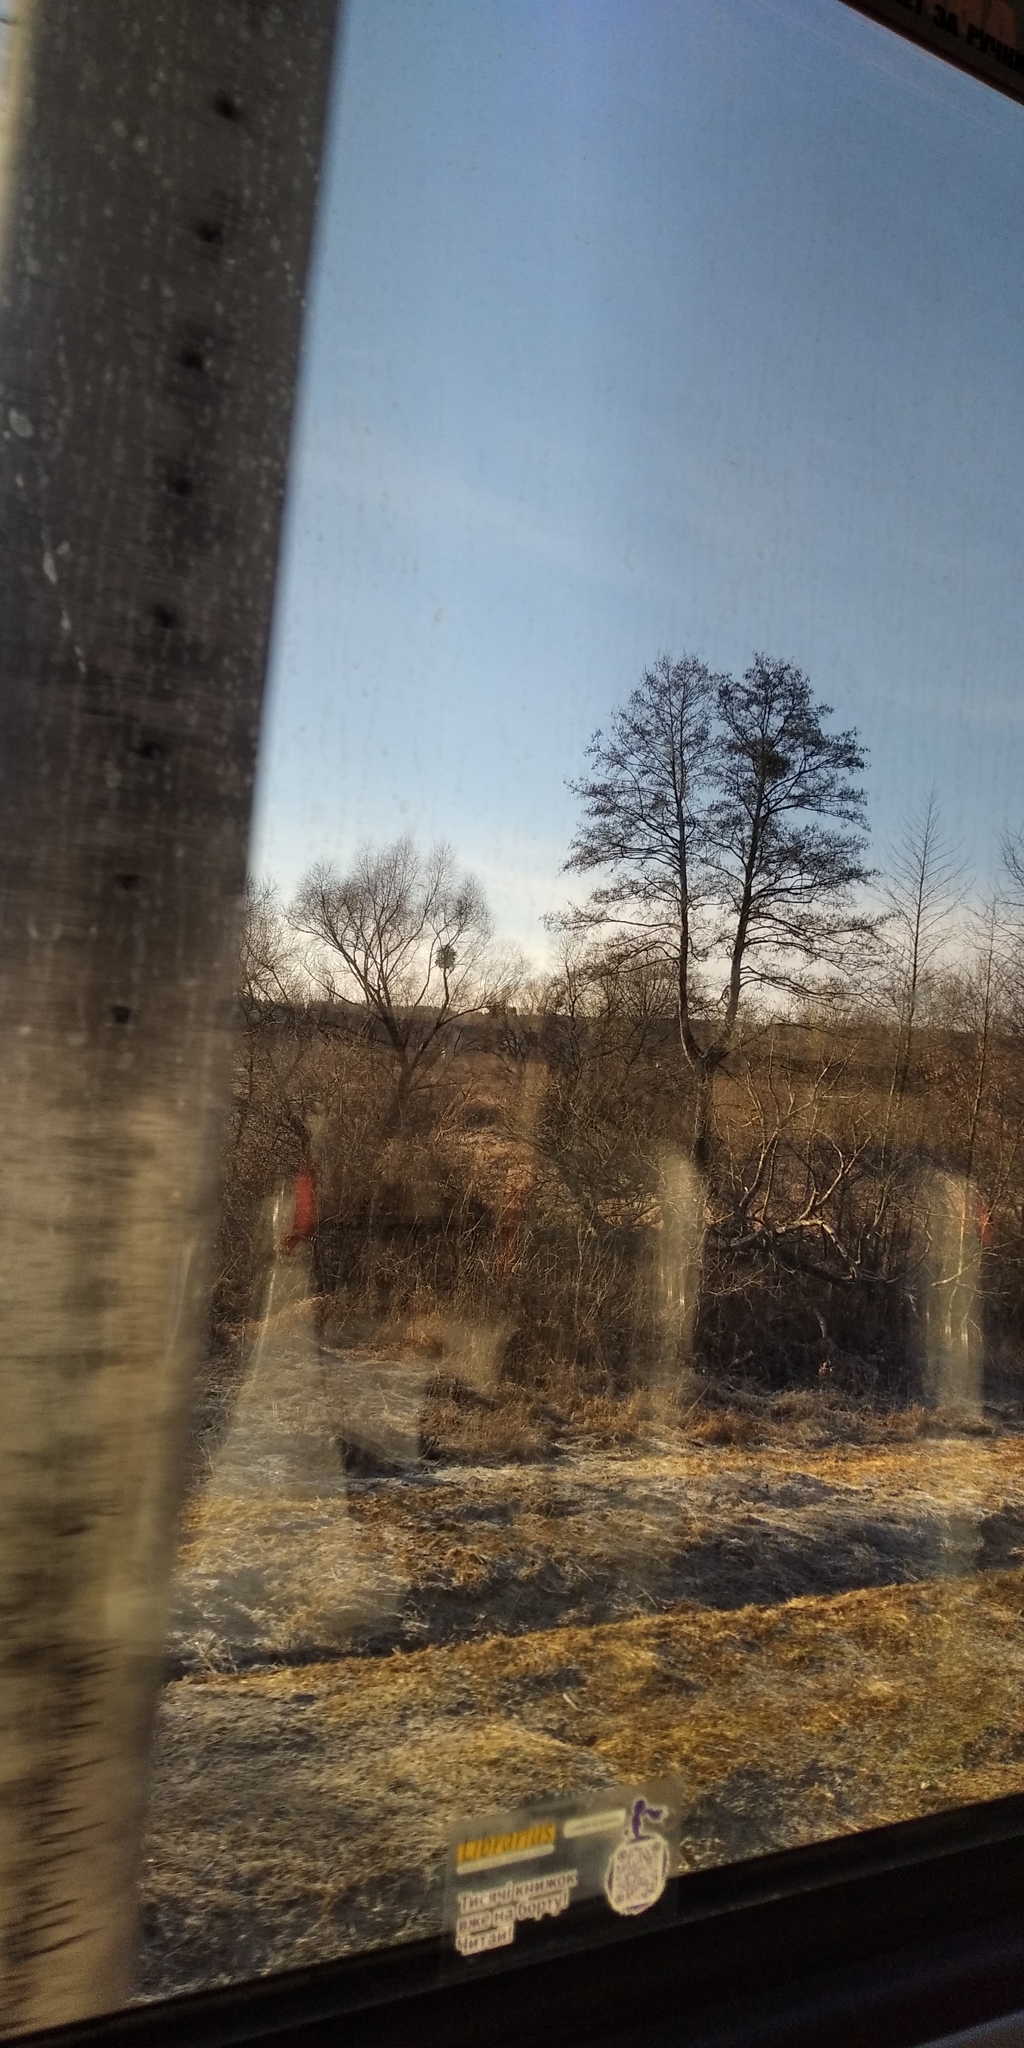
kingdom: Plantae
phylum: Tracheophyta
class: Magnoliopsida
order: Santalales
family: Viscaceae
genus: Viscum
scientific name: Viscum album
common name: Mistletoe
